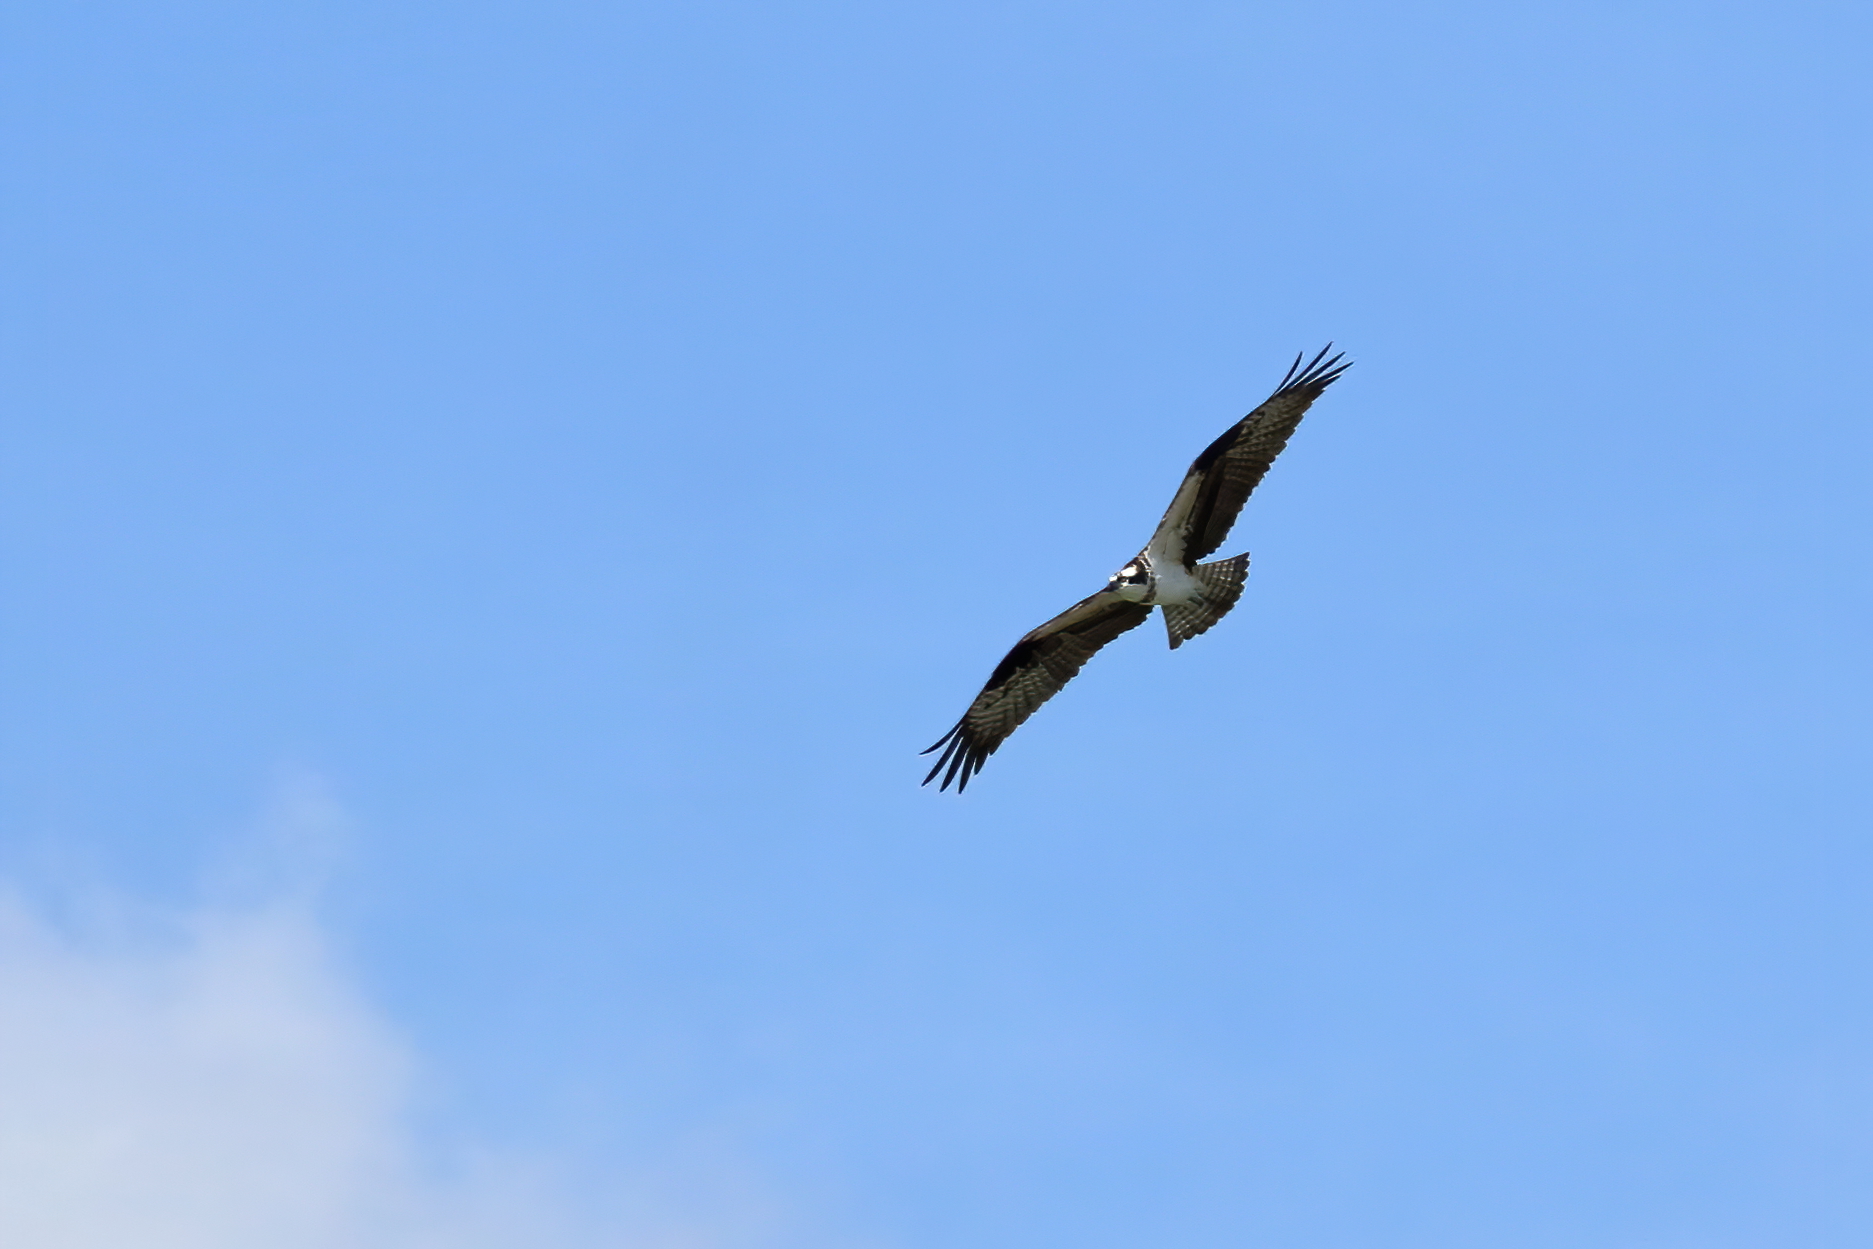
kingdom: Animalia
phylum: Chordata
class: Aves
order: Accipitriformes
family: Pandionidae
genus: Pandion
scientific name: Pandion haliaetus
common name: Osprey
